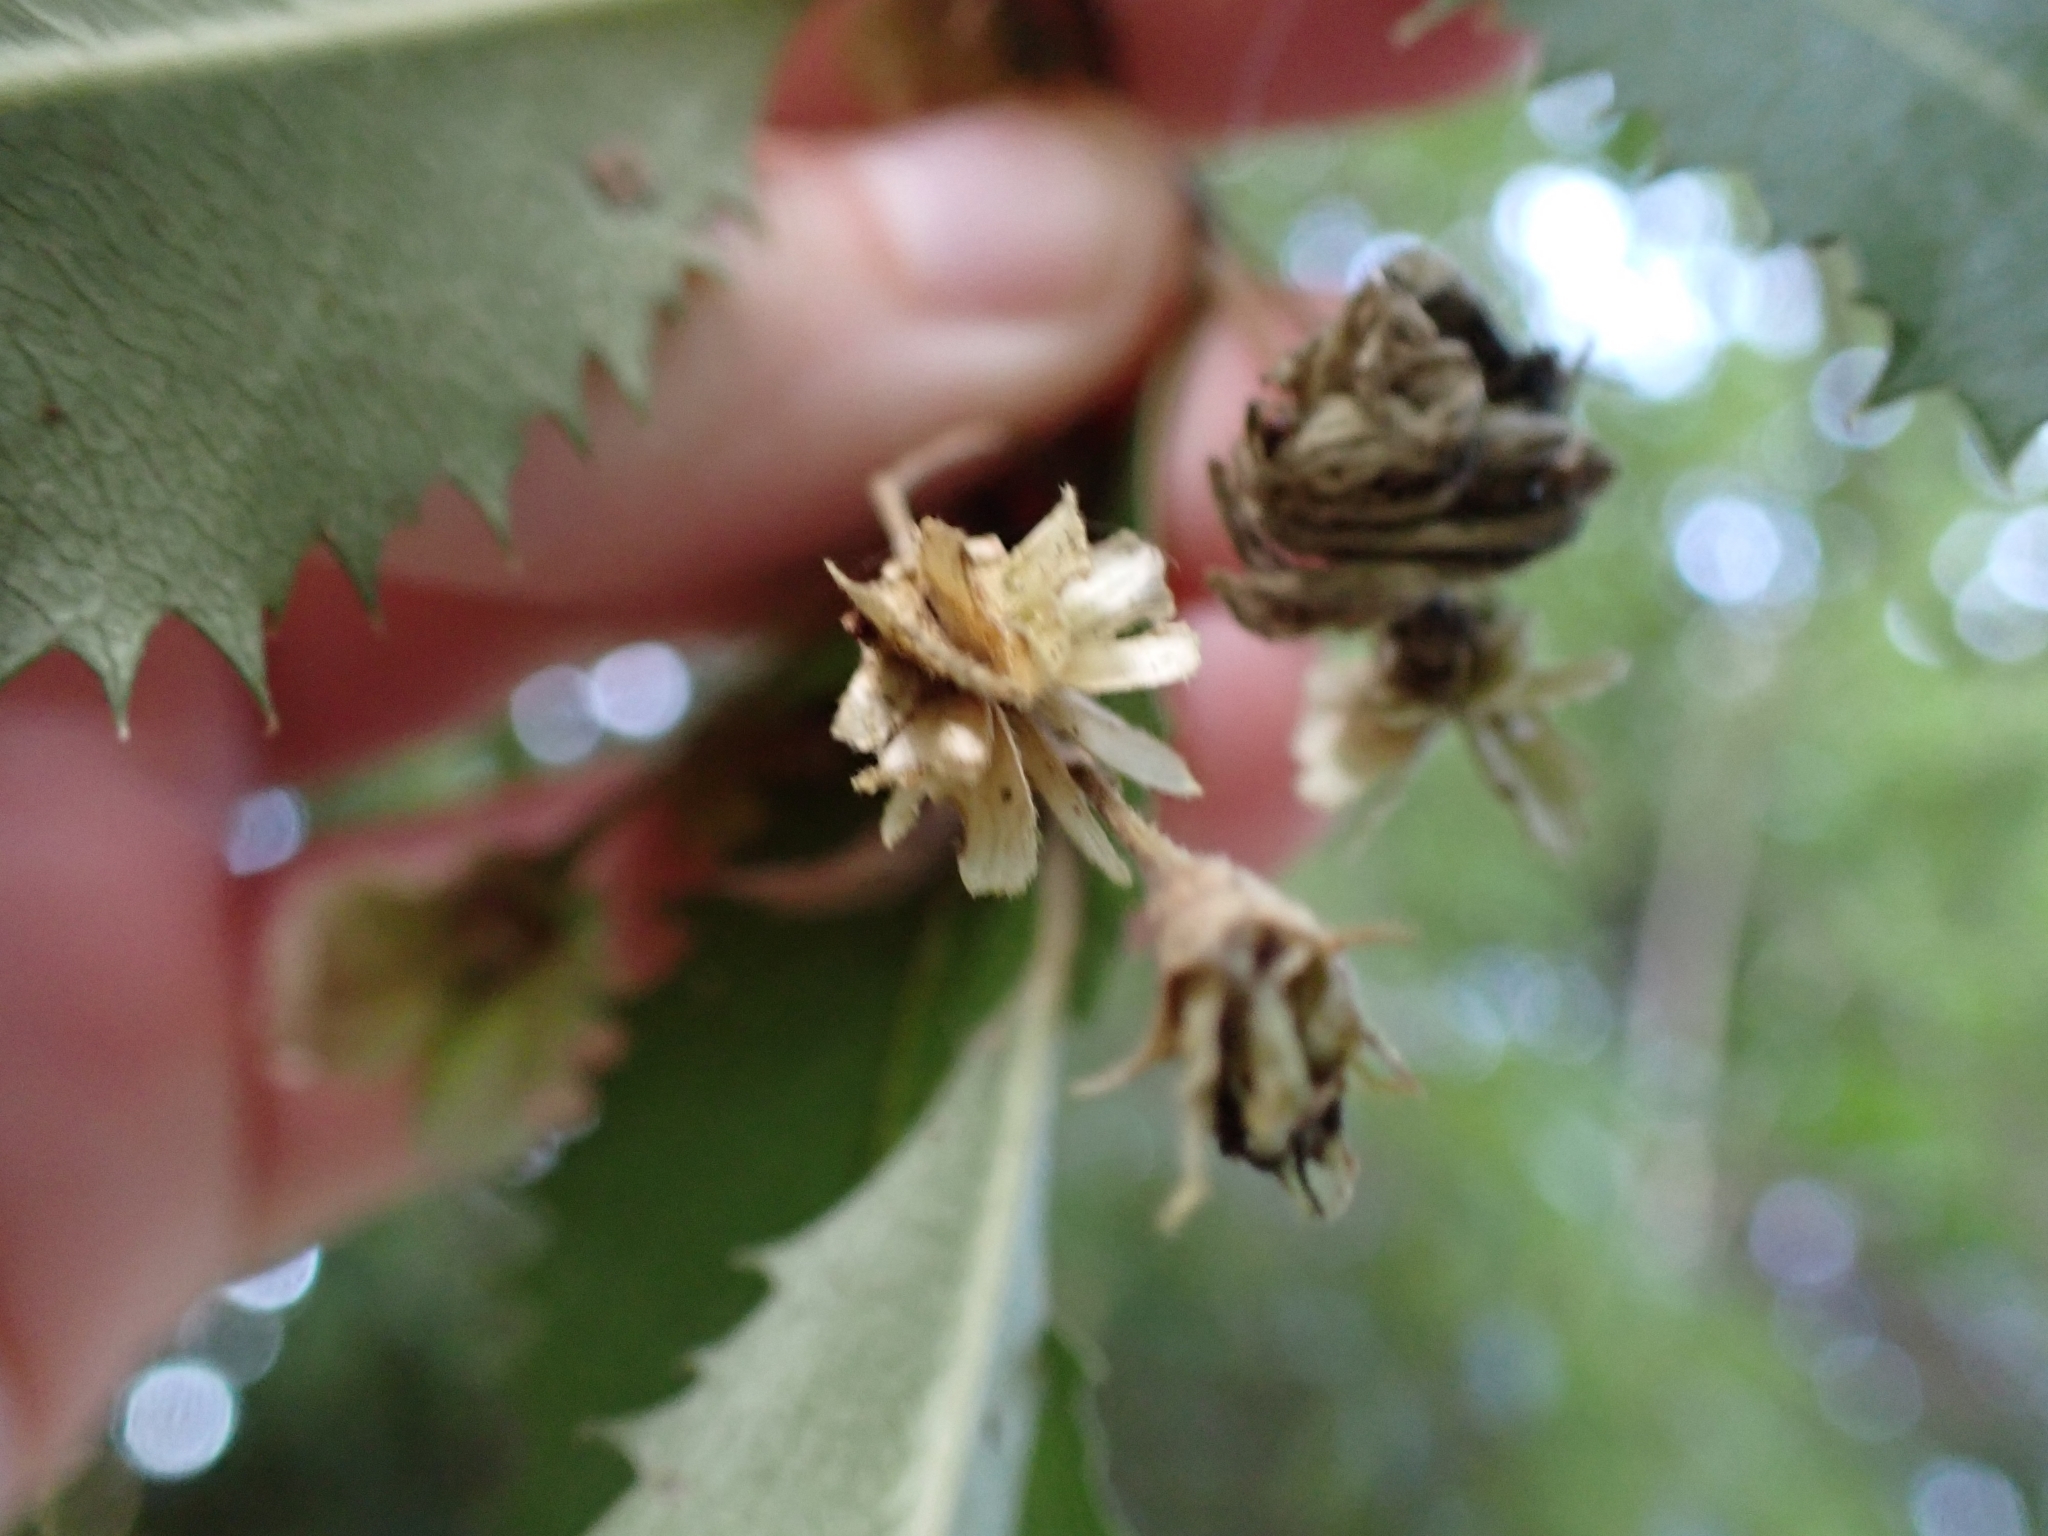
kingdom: Plantae
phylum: Tracheophyta
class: Magnoliopsida
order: Malvales
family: Malvaceae
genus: Hoheria
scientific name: Hoheria sexstylosa
